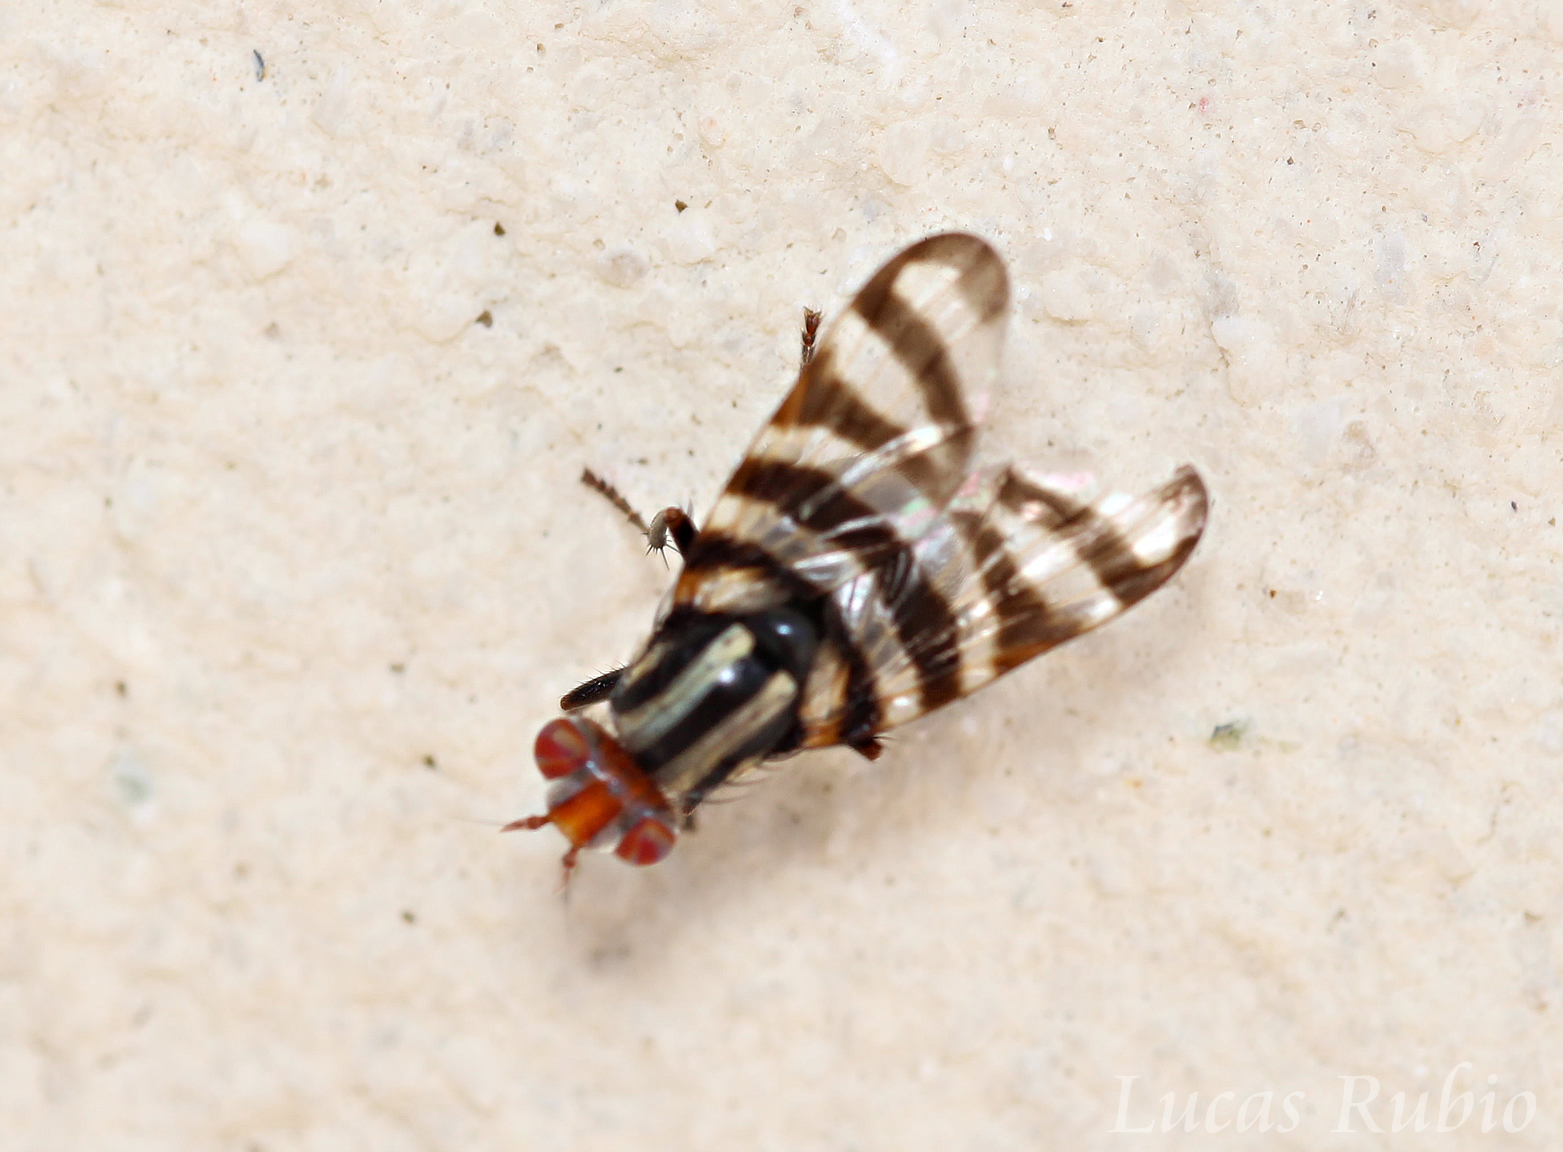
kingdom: Animalia
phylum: Arthropoda
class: Insecta
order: Diptera
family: Ulidiidae
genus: Pterotaenia
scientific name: Pterotaenia fasciata
